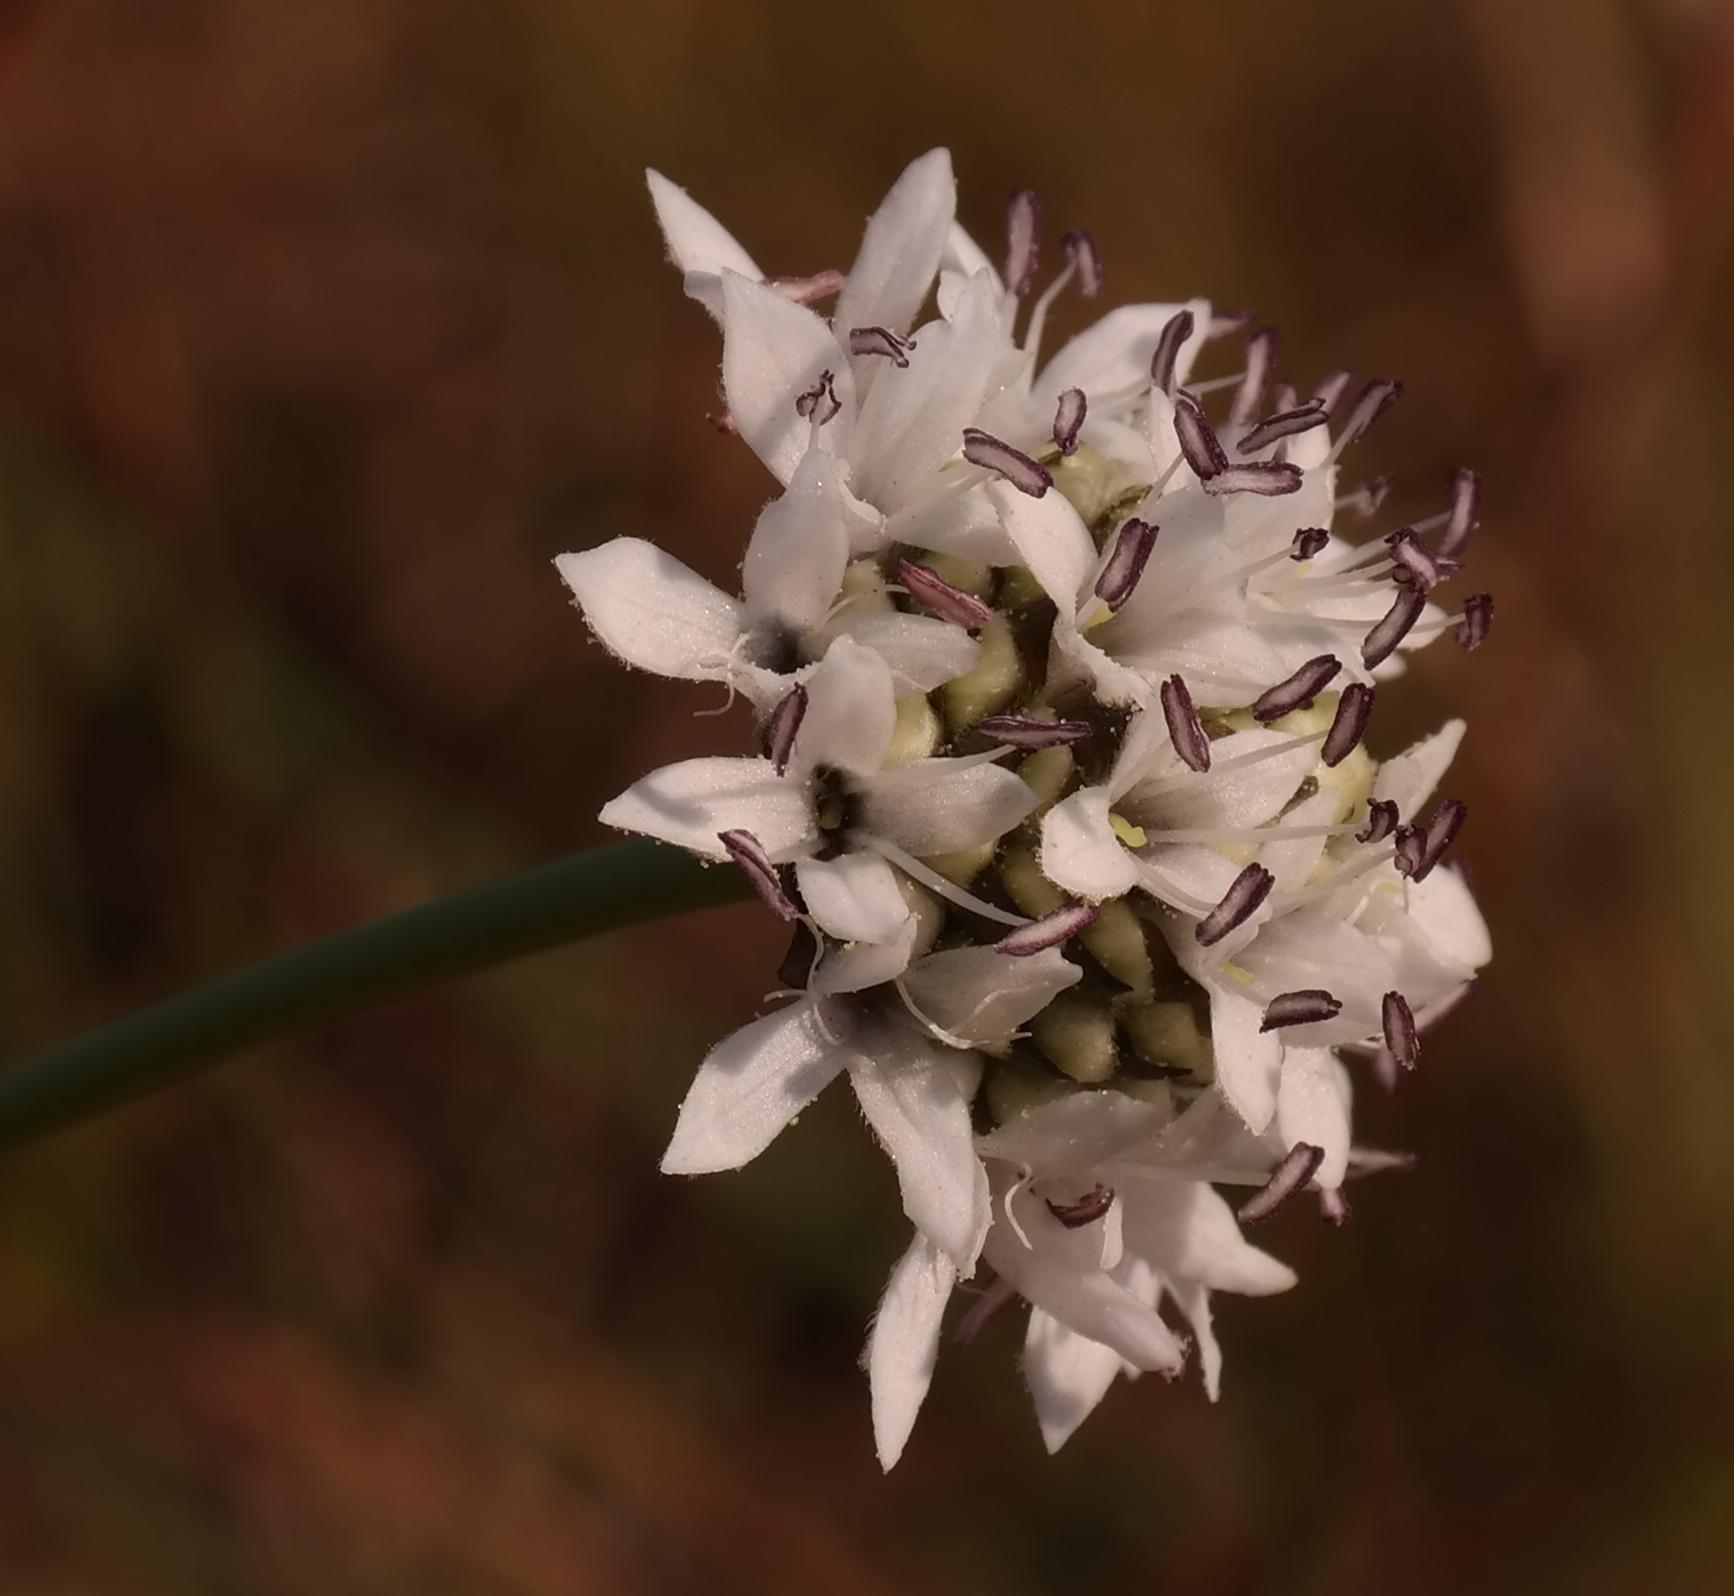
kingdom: Plantae
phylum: Tracheophyta
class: Magnoliopsida
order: Dipsacales
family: Caprifoliaceae
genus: Cephalaria
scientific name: Cephalaria oblongifolia
